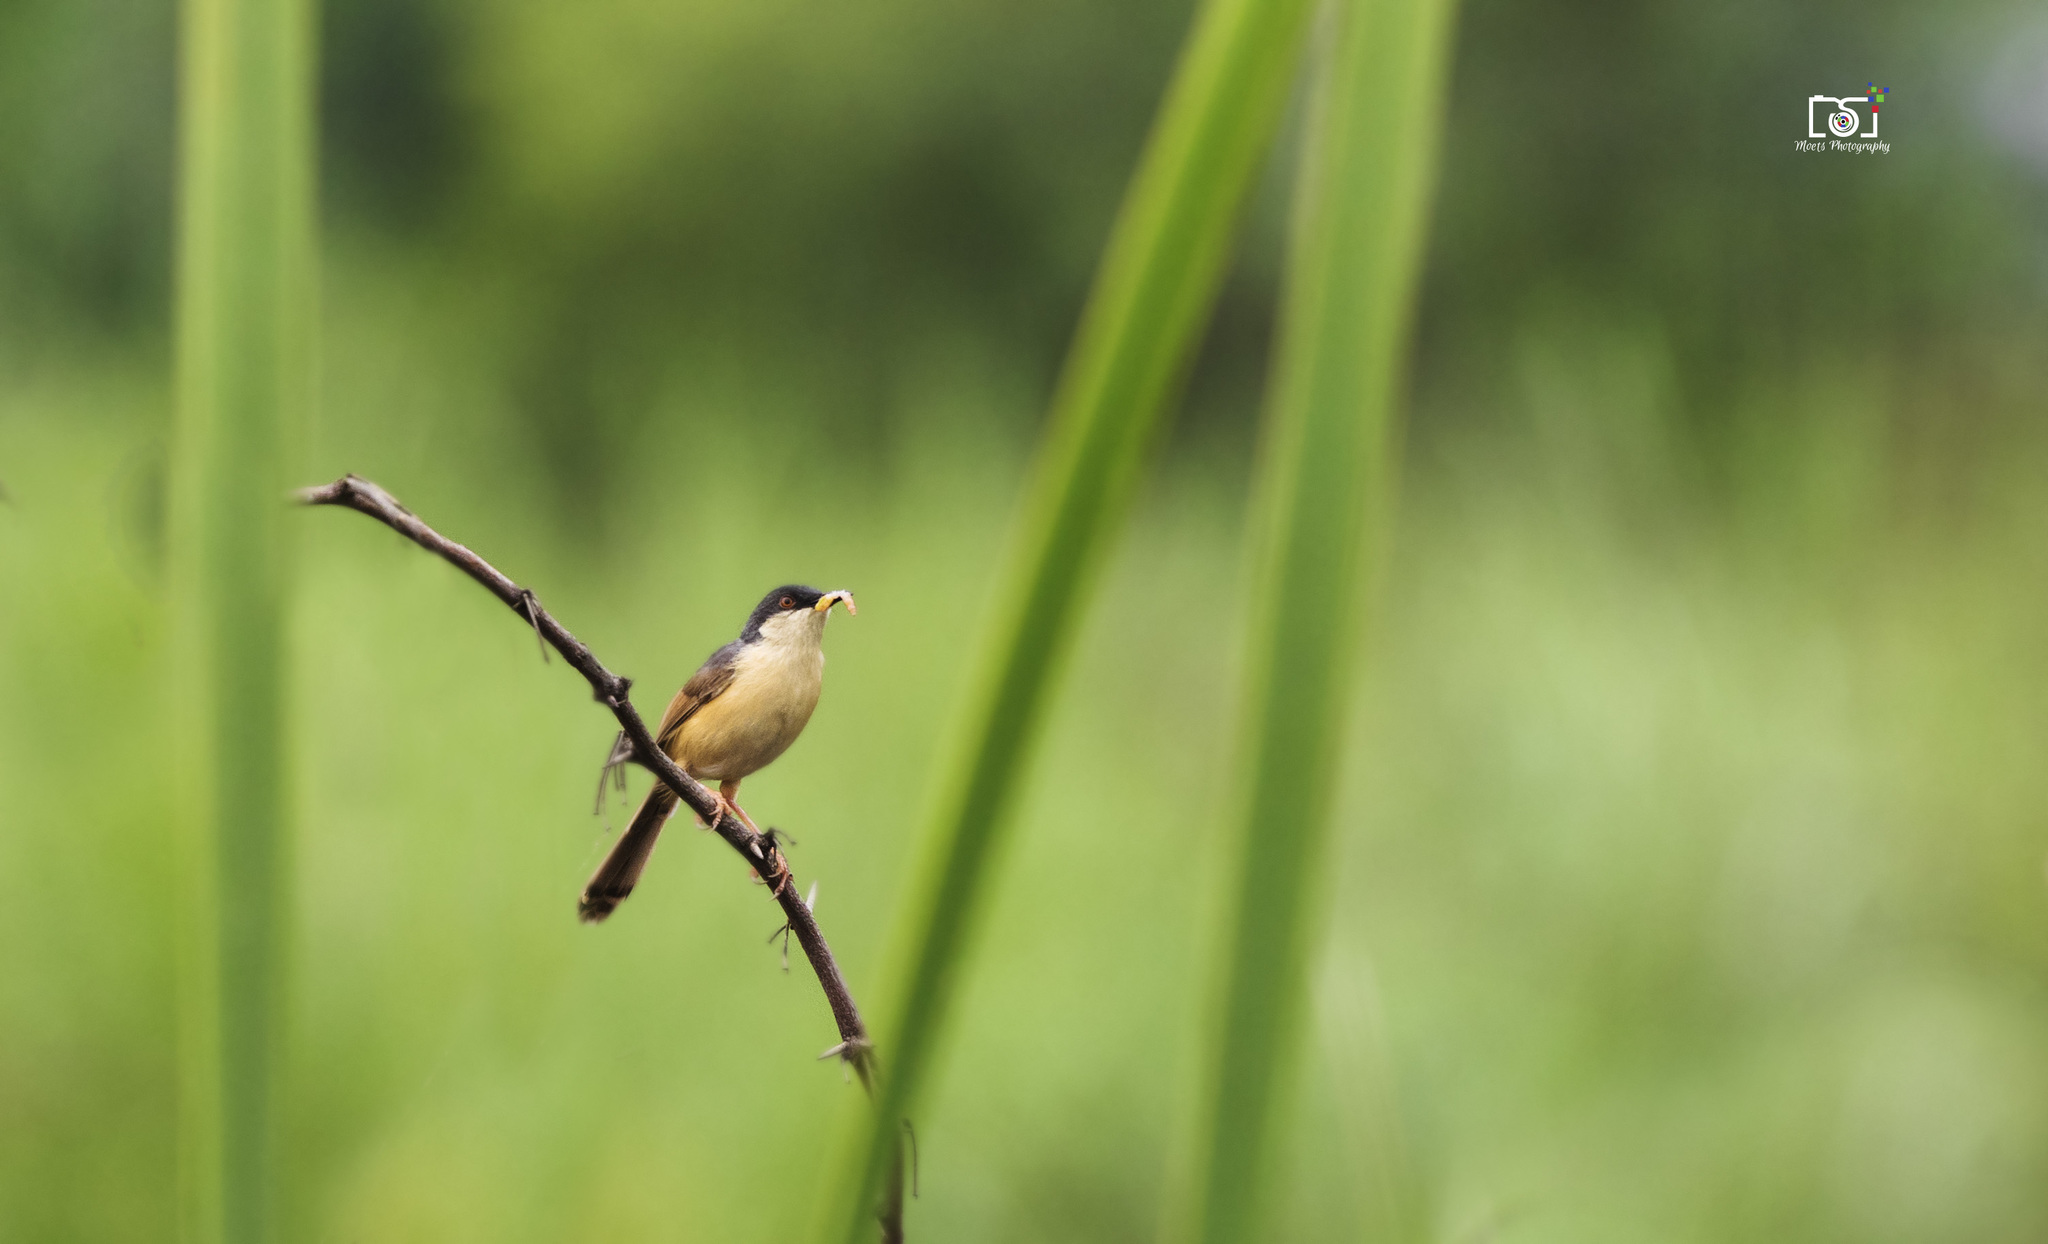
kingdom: Animalia
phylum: Chordata
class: Aves
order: Passeriformes
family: Cisticolidae
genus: Prinia
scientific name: Prinia socialis
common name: Ashy prinia
